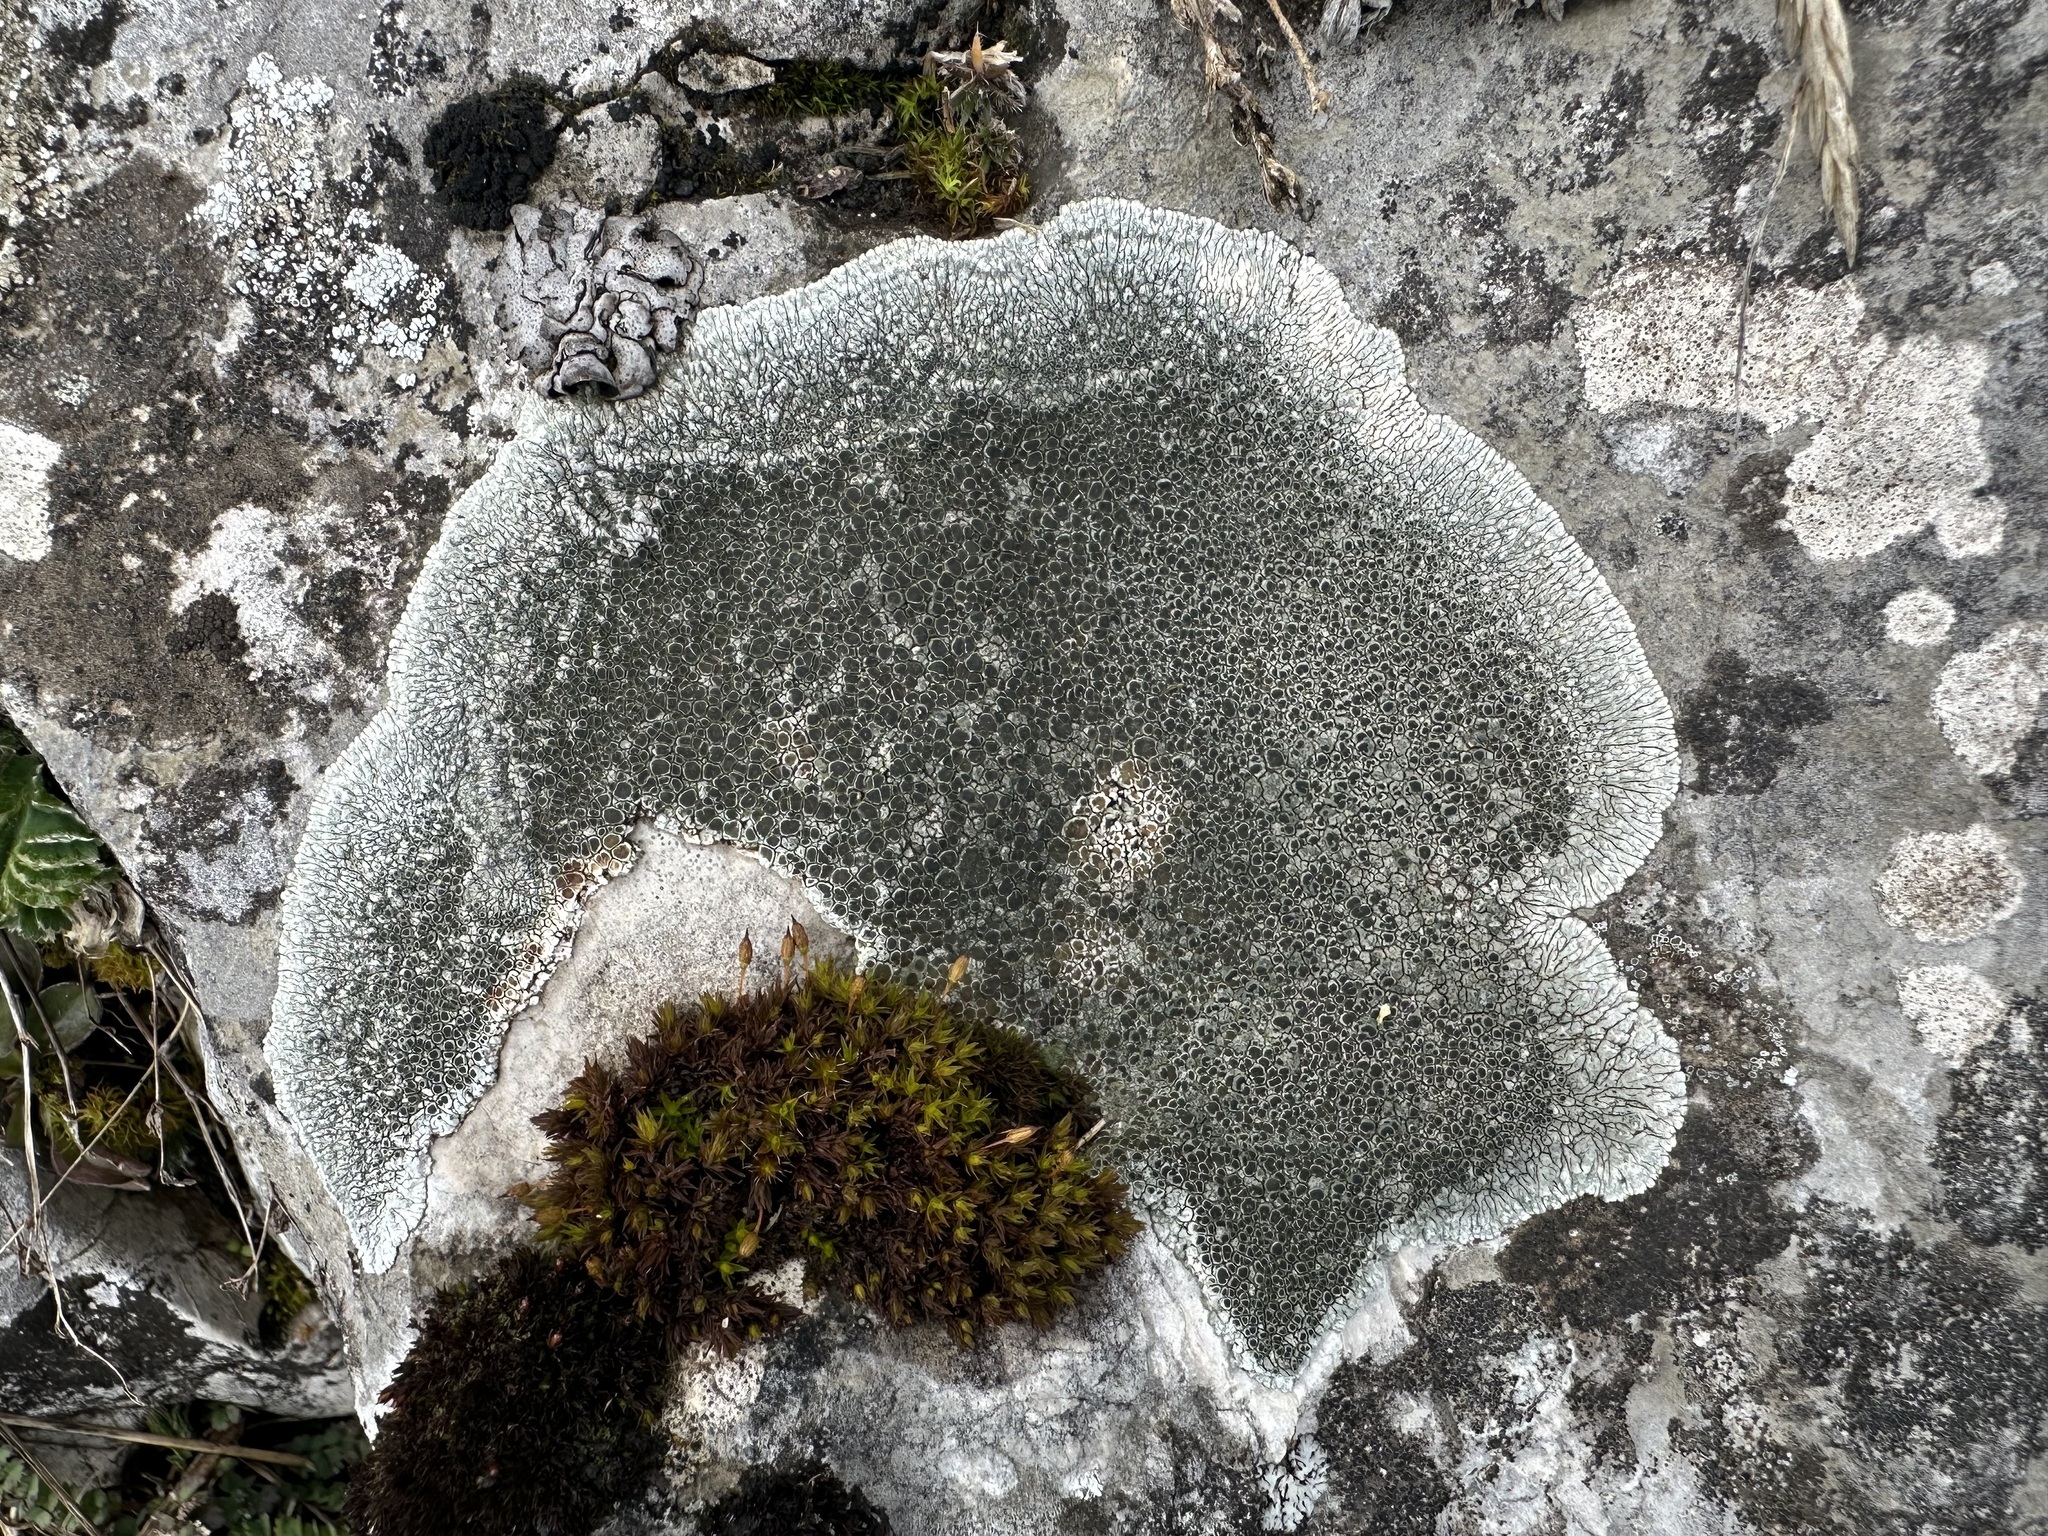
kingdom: Fungi
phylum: Ascomycota
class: Lecanoromycetes
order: Pertusariales
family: Megasporaceae
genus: Lobothallia
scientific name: Lobothallia radiosa
